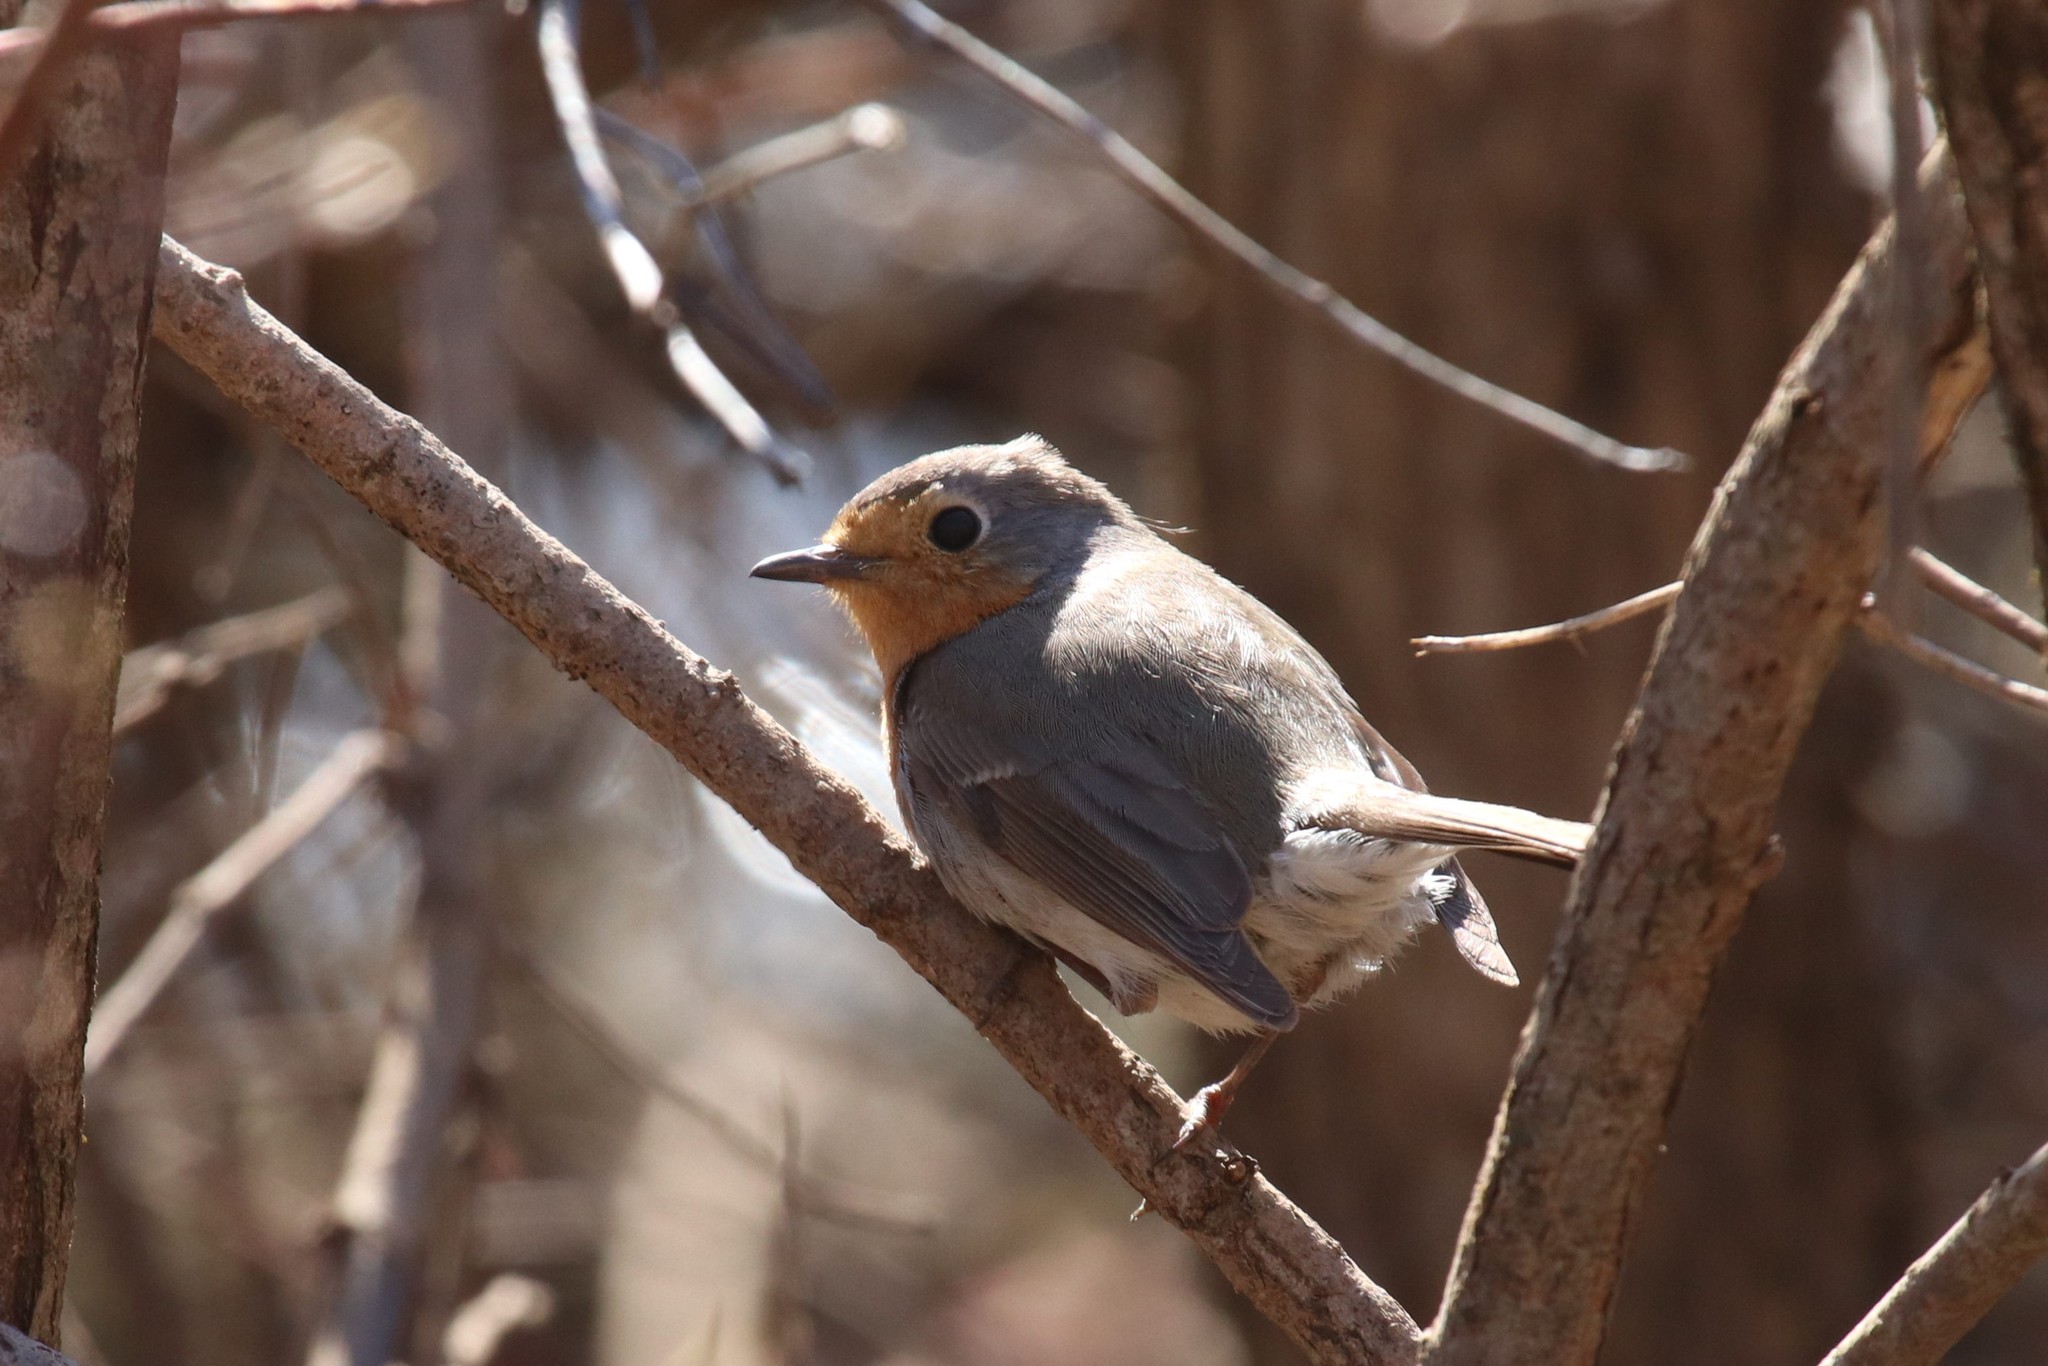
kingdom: Animalia
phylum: Chordata
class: Aves
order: Passeriformes
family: Muscicapidae
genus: Erithacus
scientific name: Erithacus rubecula
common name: European robin
